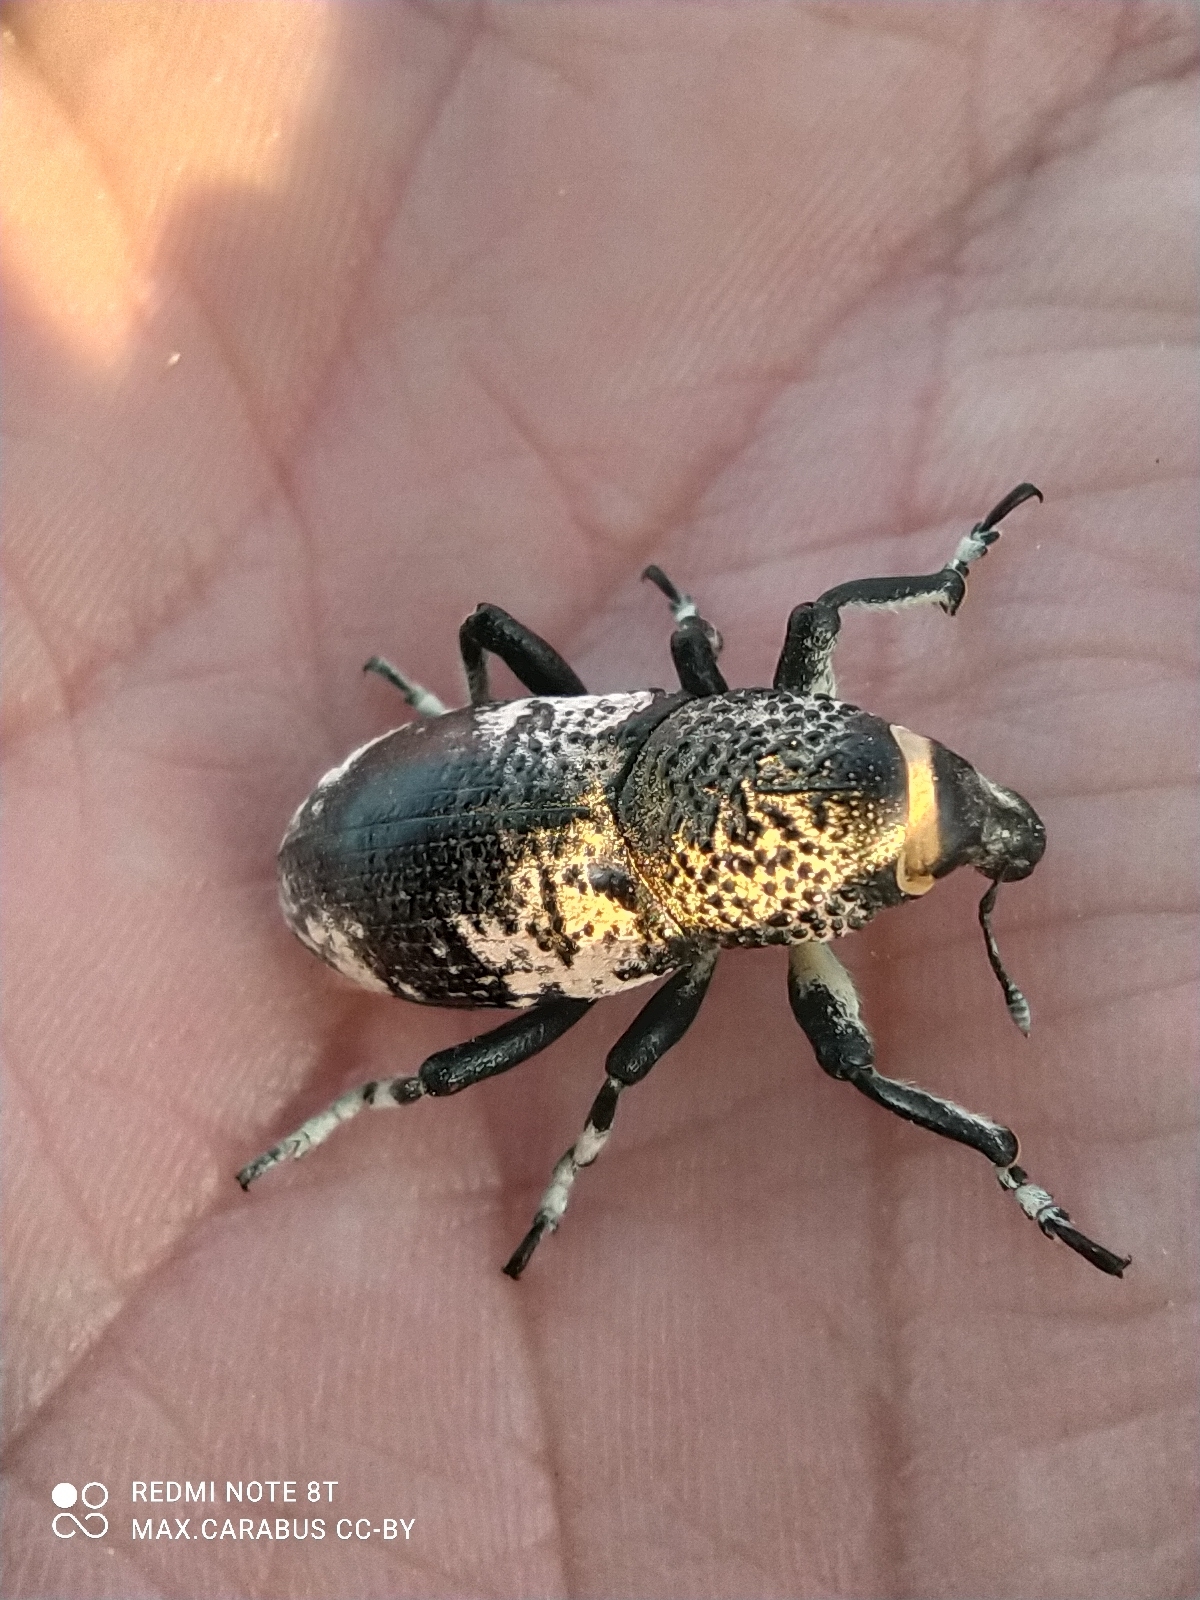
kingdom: Animalia
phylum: Arthropoda
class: Insecta
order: Coleoptera
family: Curculionidae
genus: Chromosomus
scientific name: Chromosomus granulatus
